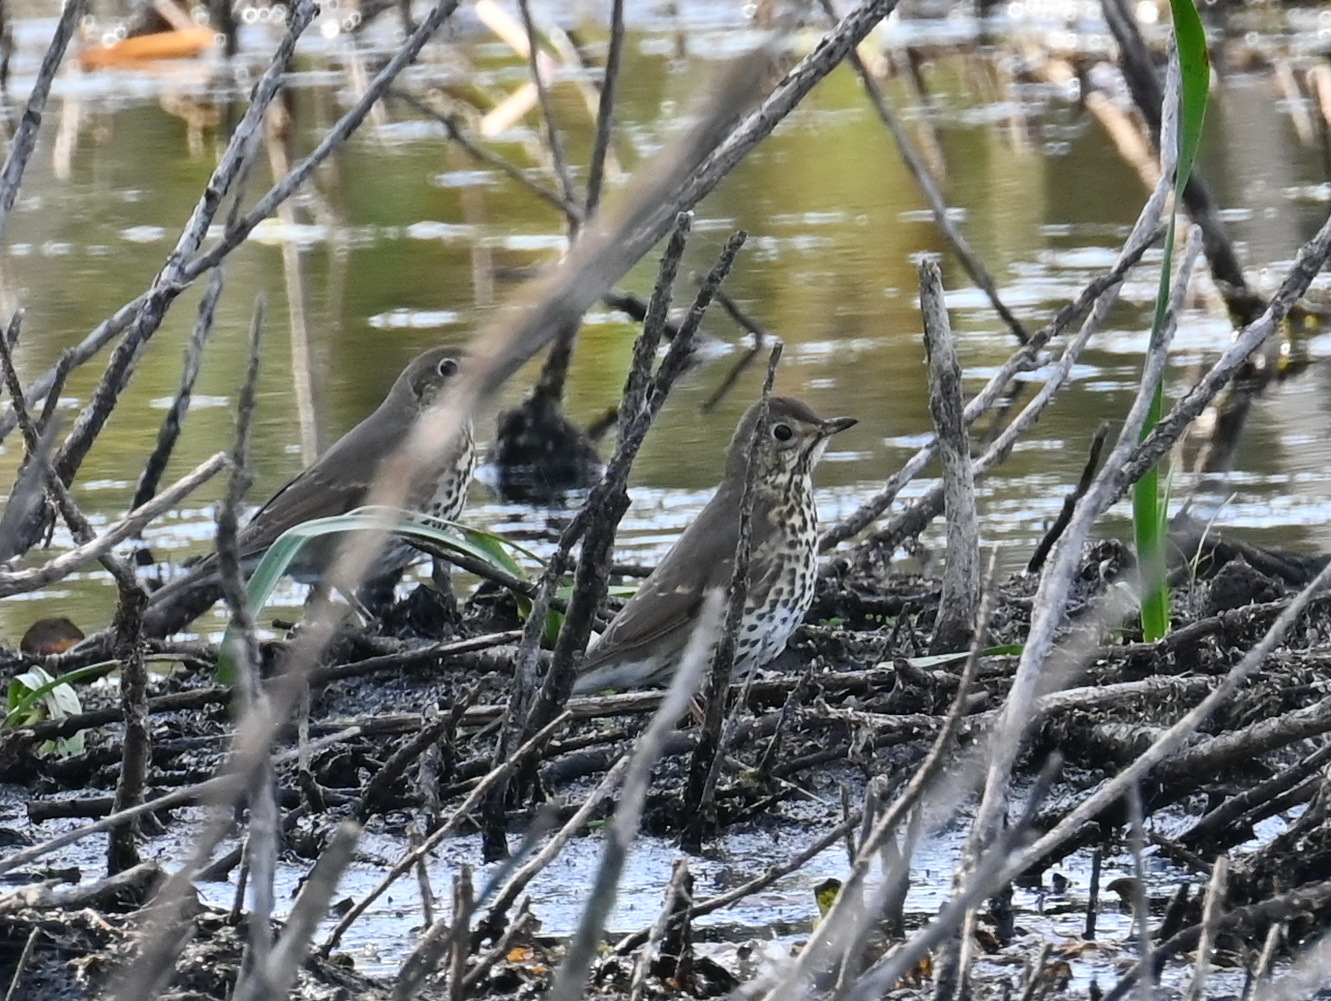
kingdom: Animalia
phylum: Chordata
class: Aves
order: Passeriformes
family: Turdidae
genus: Turdus
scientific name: Turdus philomelos
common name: Song thrush
